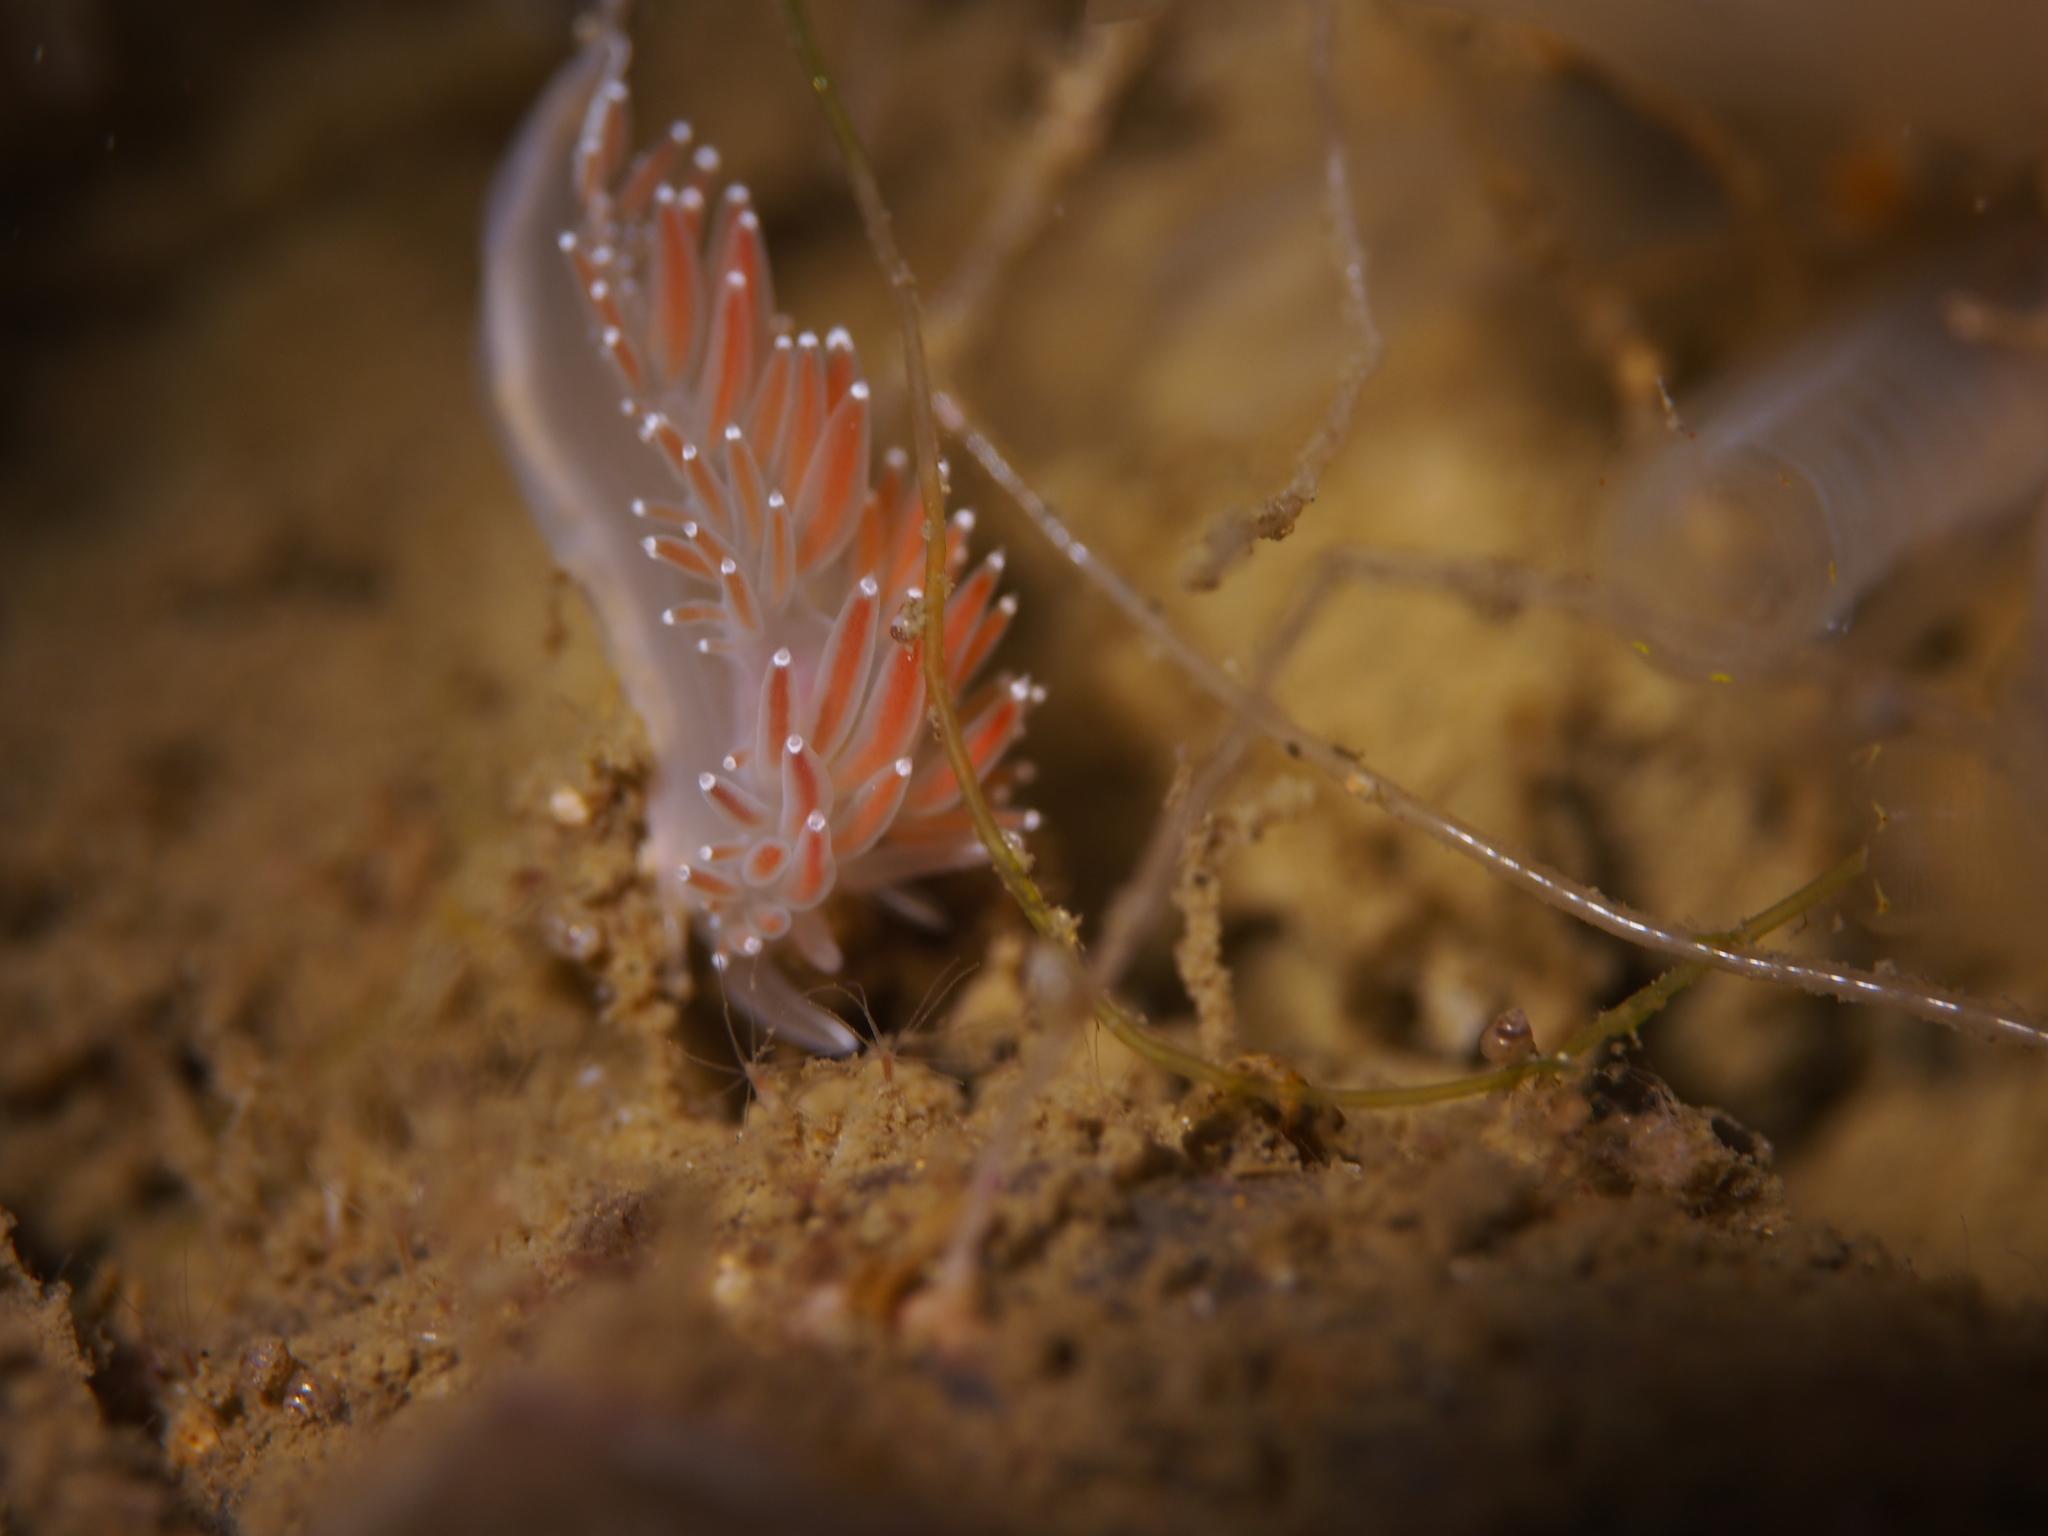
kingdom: Animalia
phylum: Mollusca
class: Gastropoda
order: Nudibranchia
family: Coryphellidae
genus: Coryphella
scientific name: Coryphella verrucosa
